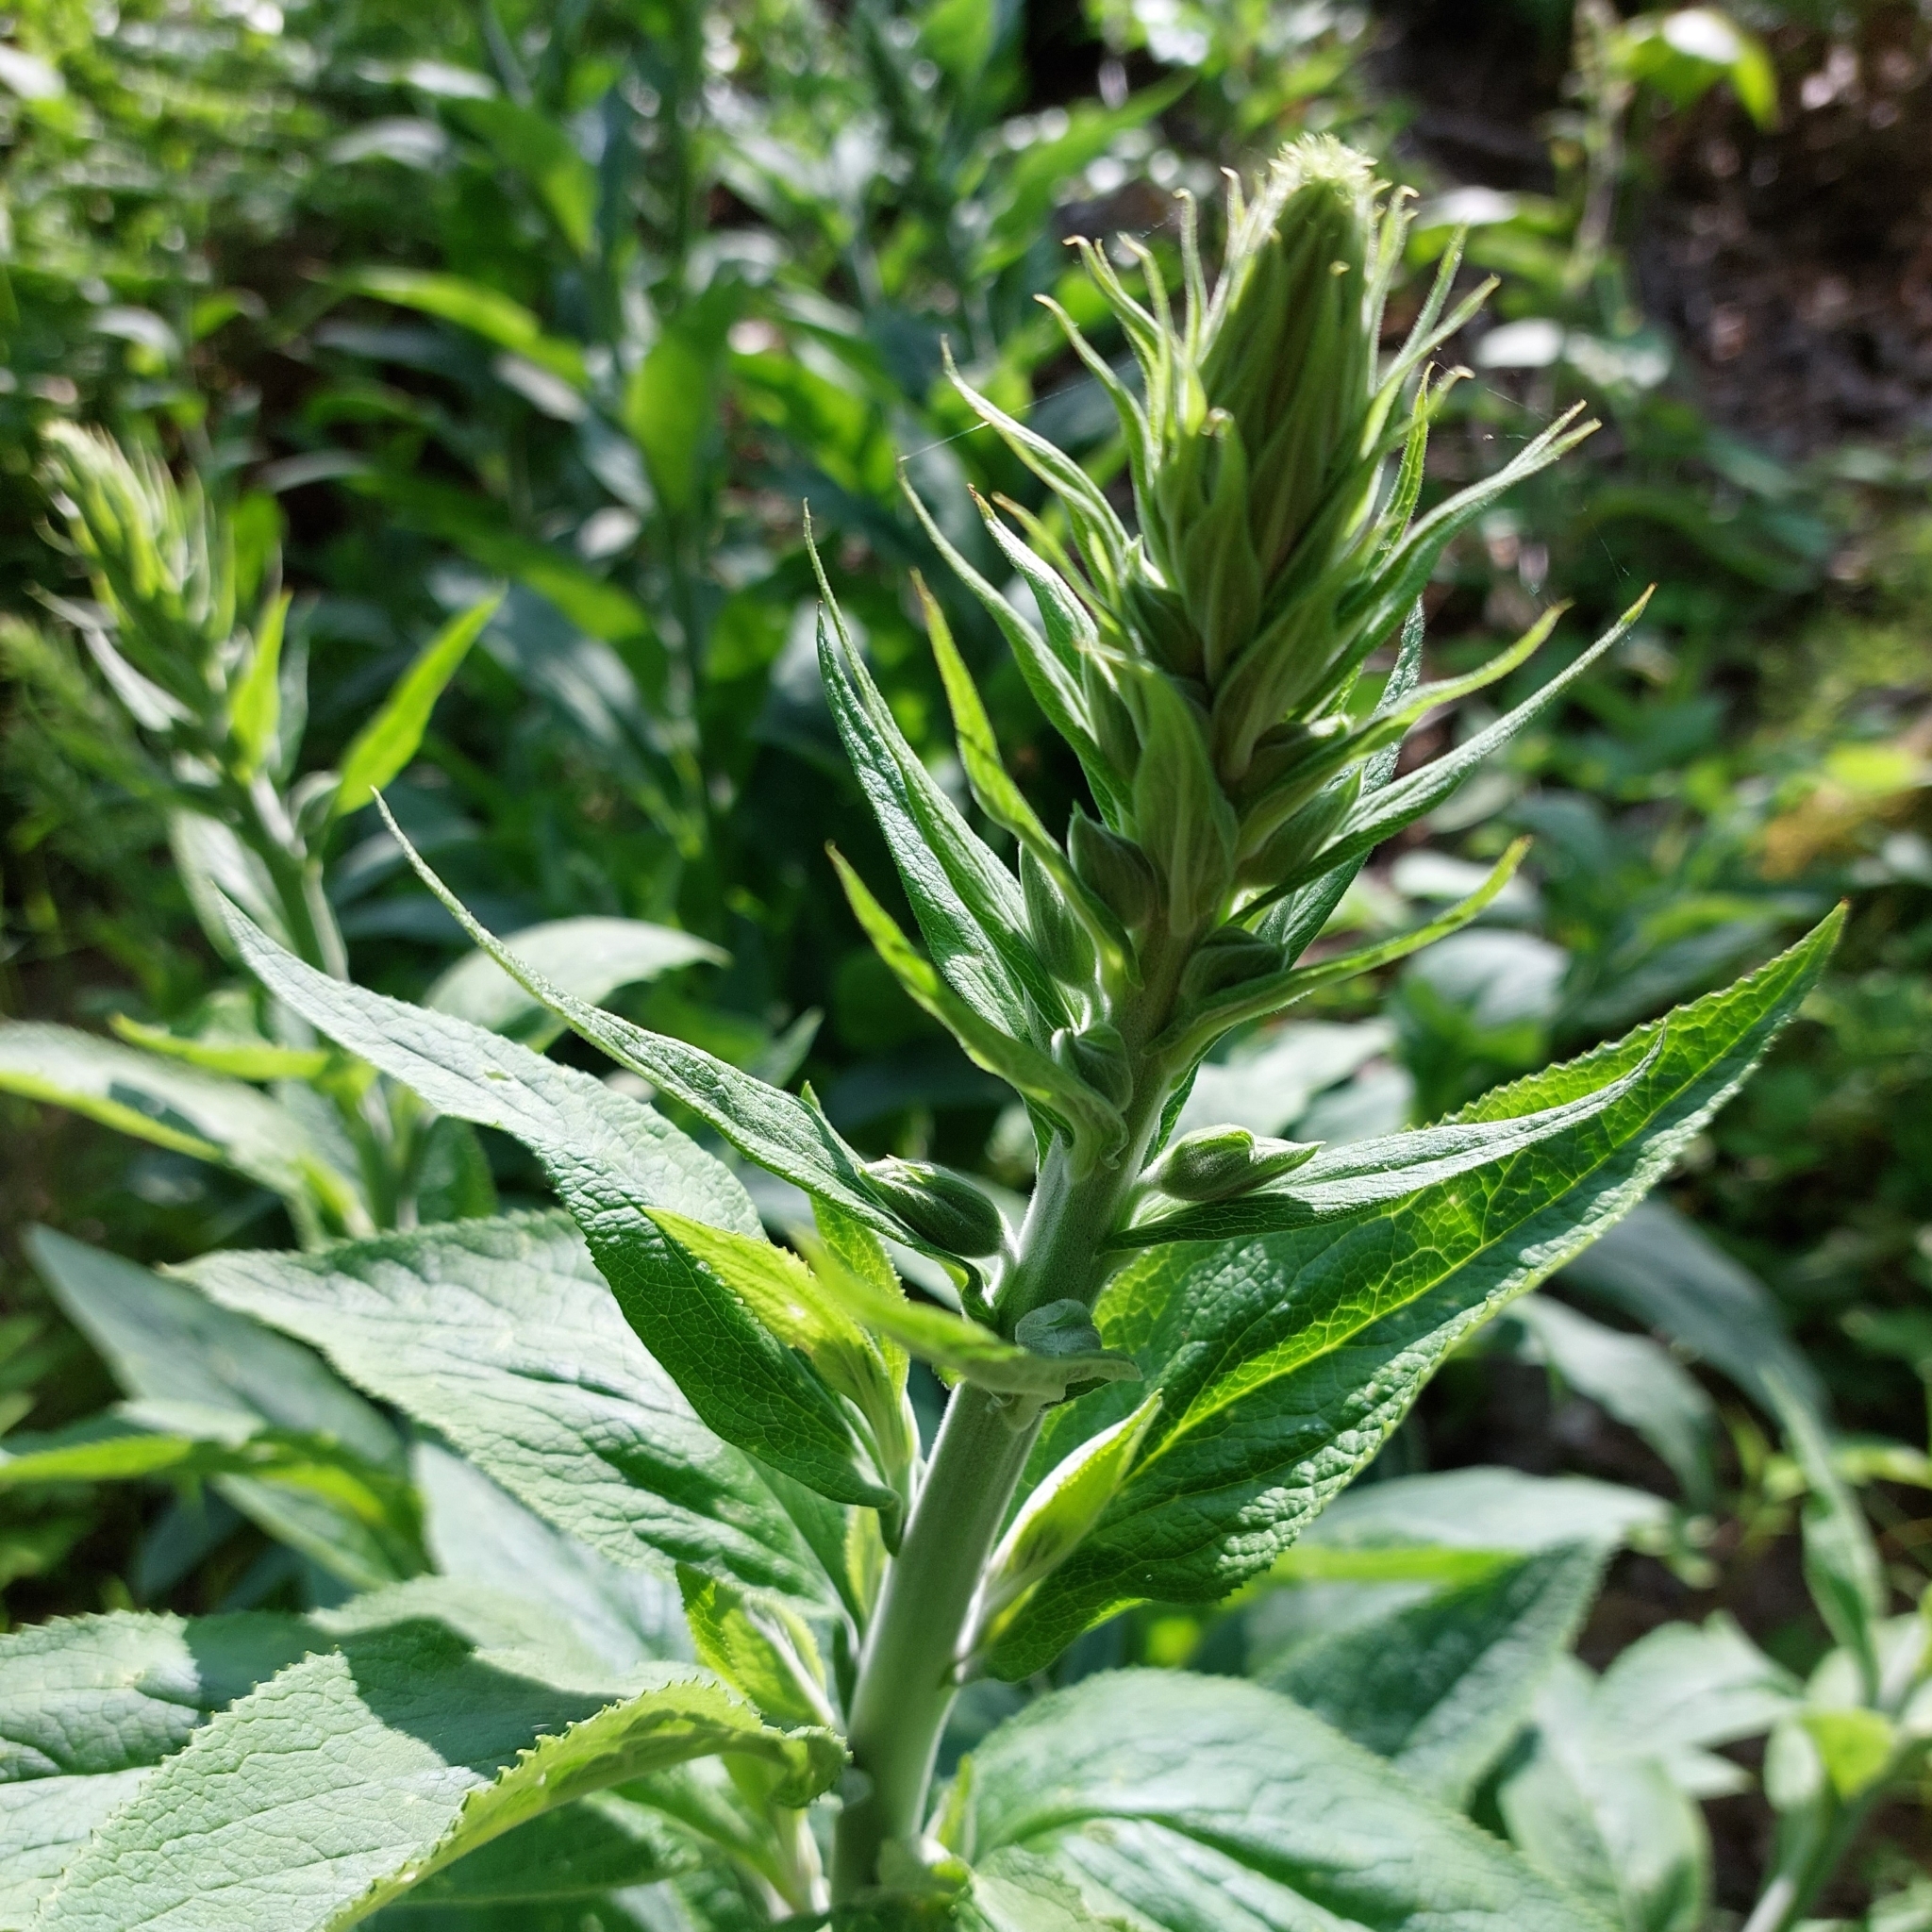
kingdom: Plantae
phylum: Tracheophyta
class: Magnoliopsida
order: Lamiales
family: Plantaginaceae
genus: Digitalis
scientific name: Digitalis purpurea
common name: Foxglove
